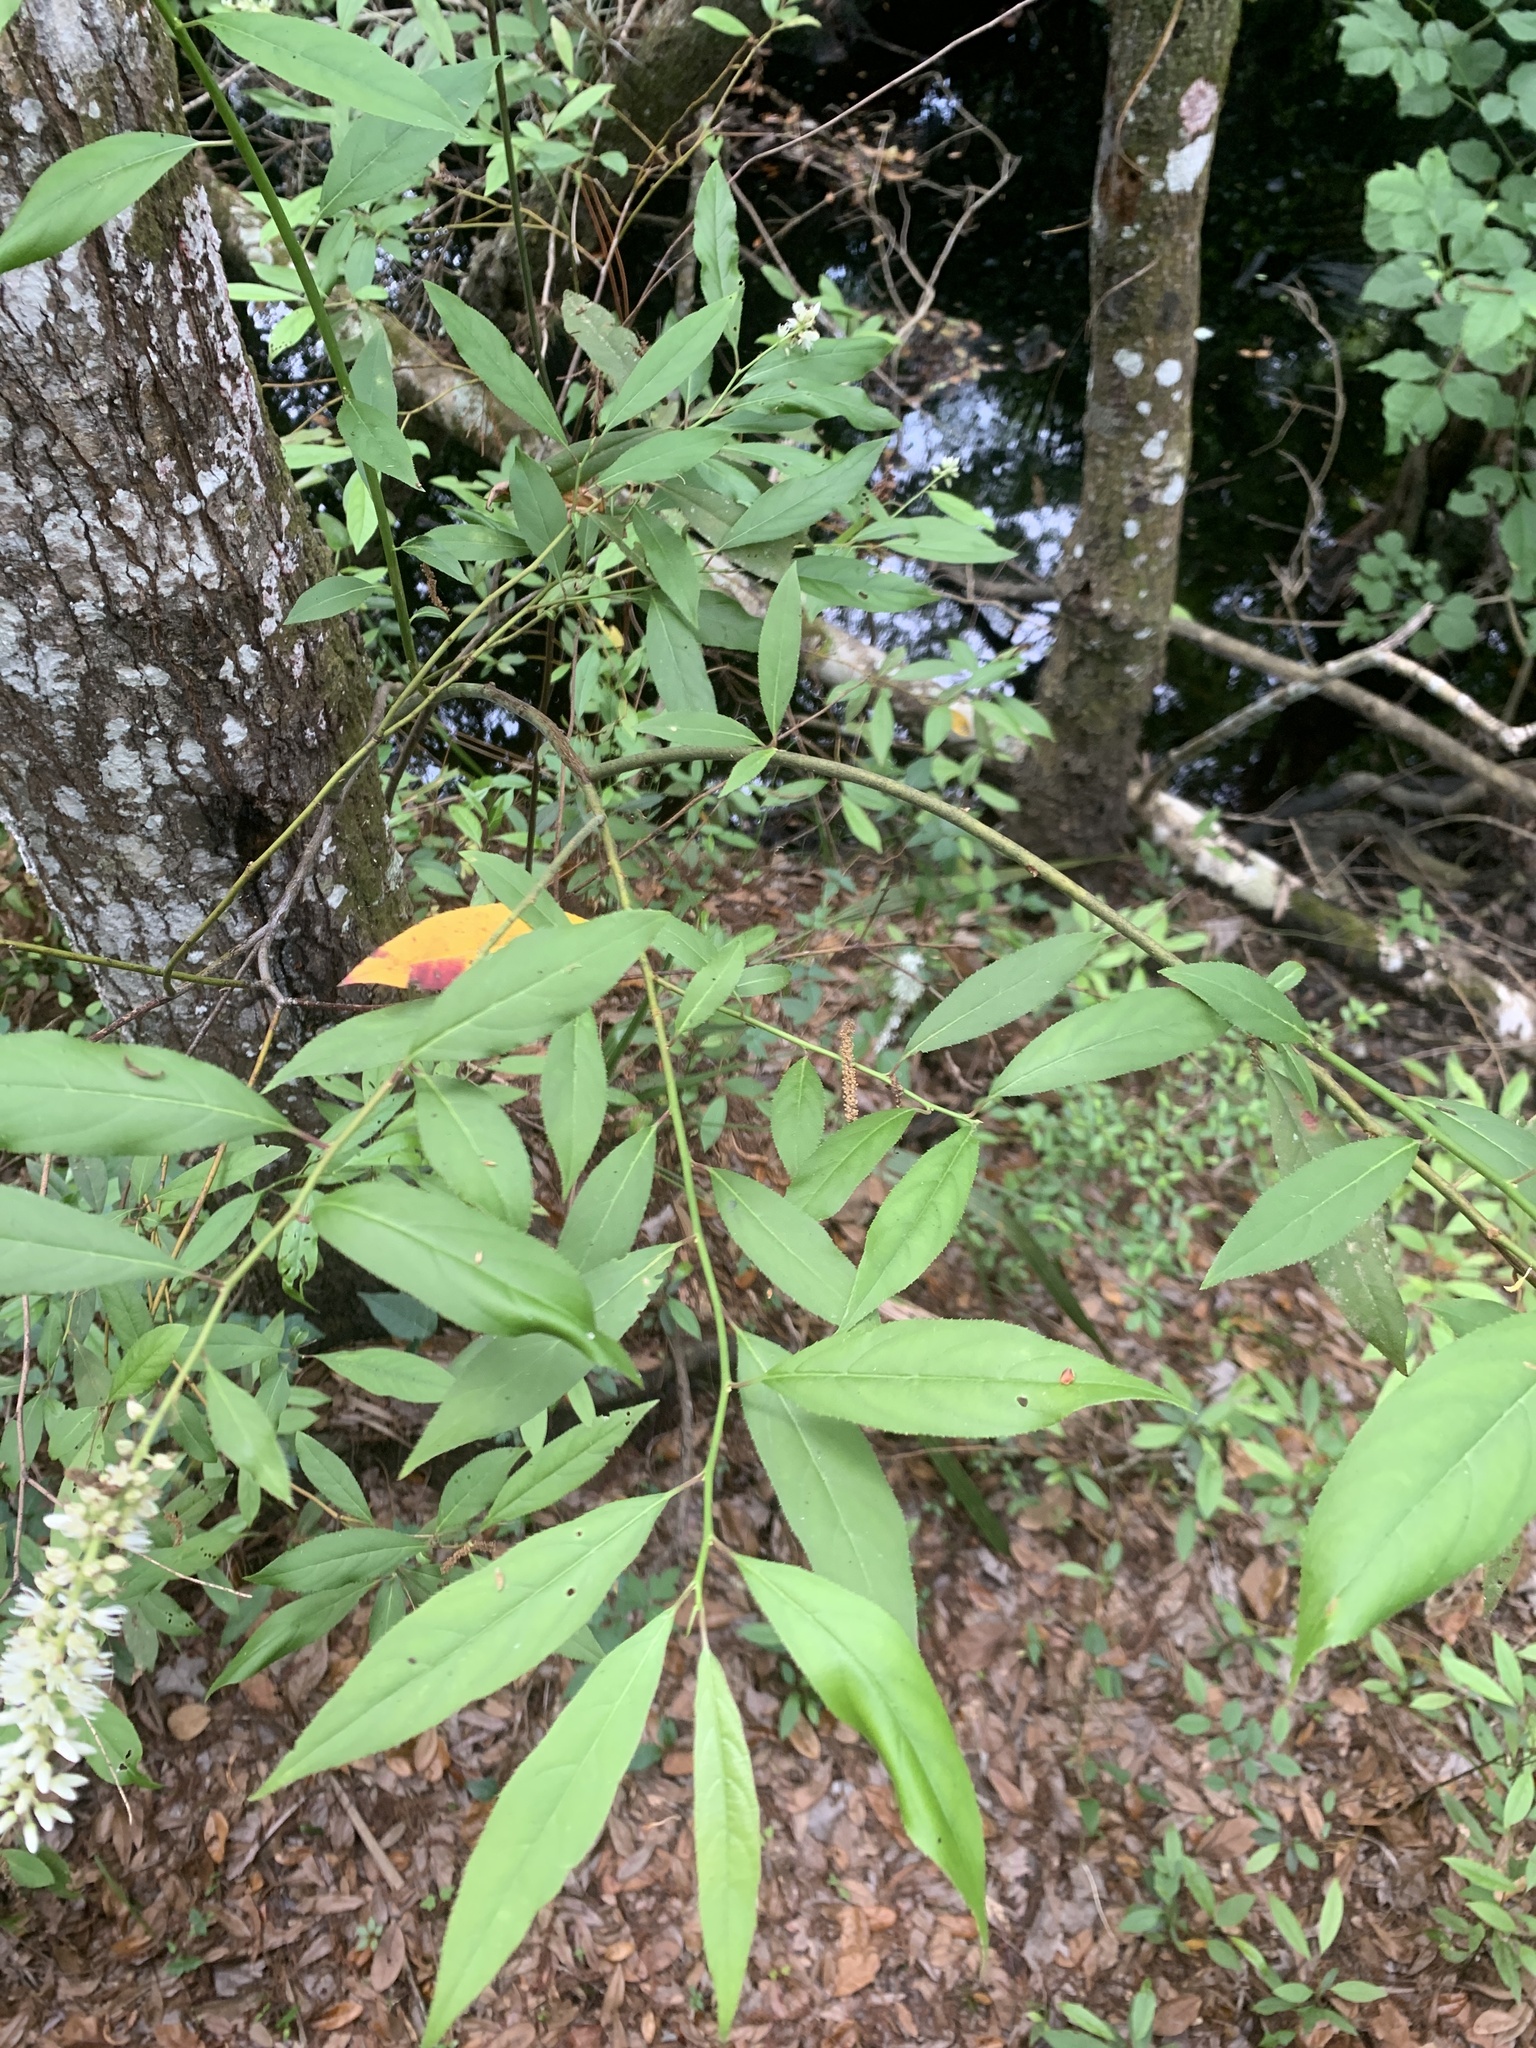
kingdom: Plantae
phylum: Tracheophyta
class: Magnoliopsida
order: Saxifragales
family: Iteaceae
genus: Itea
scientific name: Itea virginica
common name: Sweetspire
